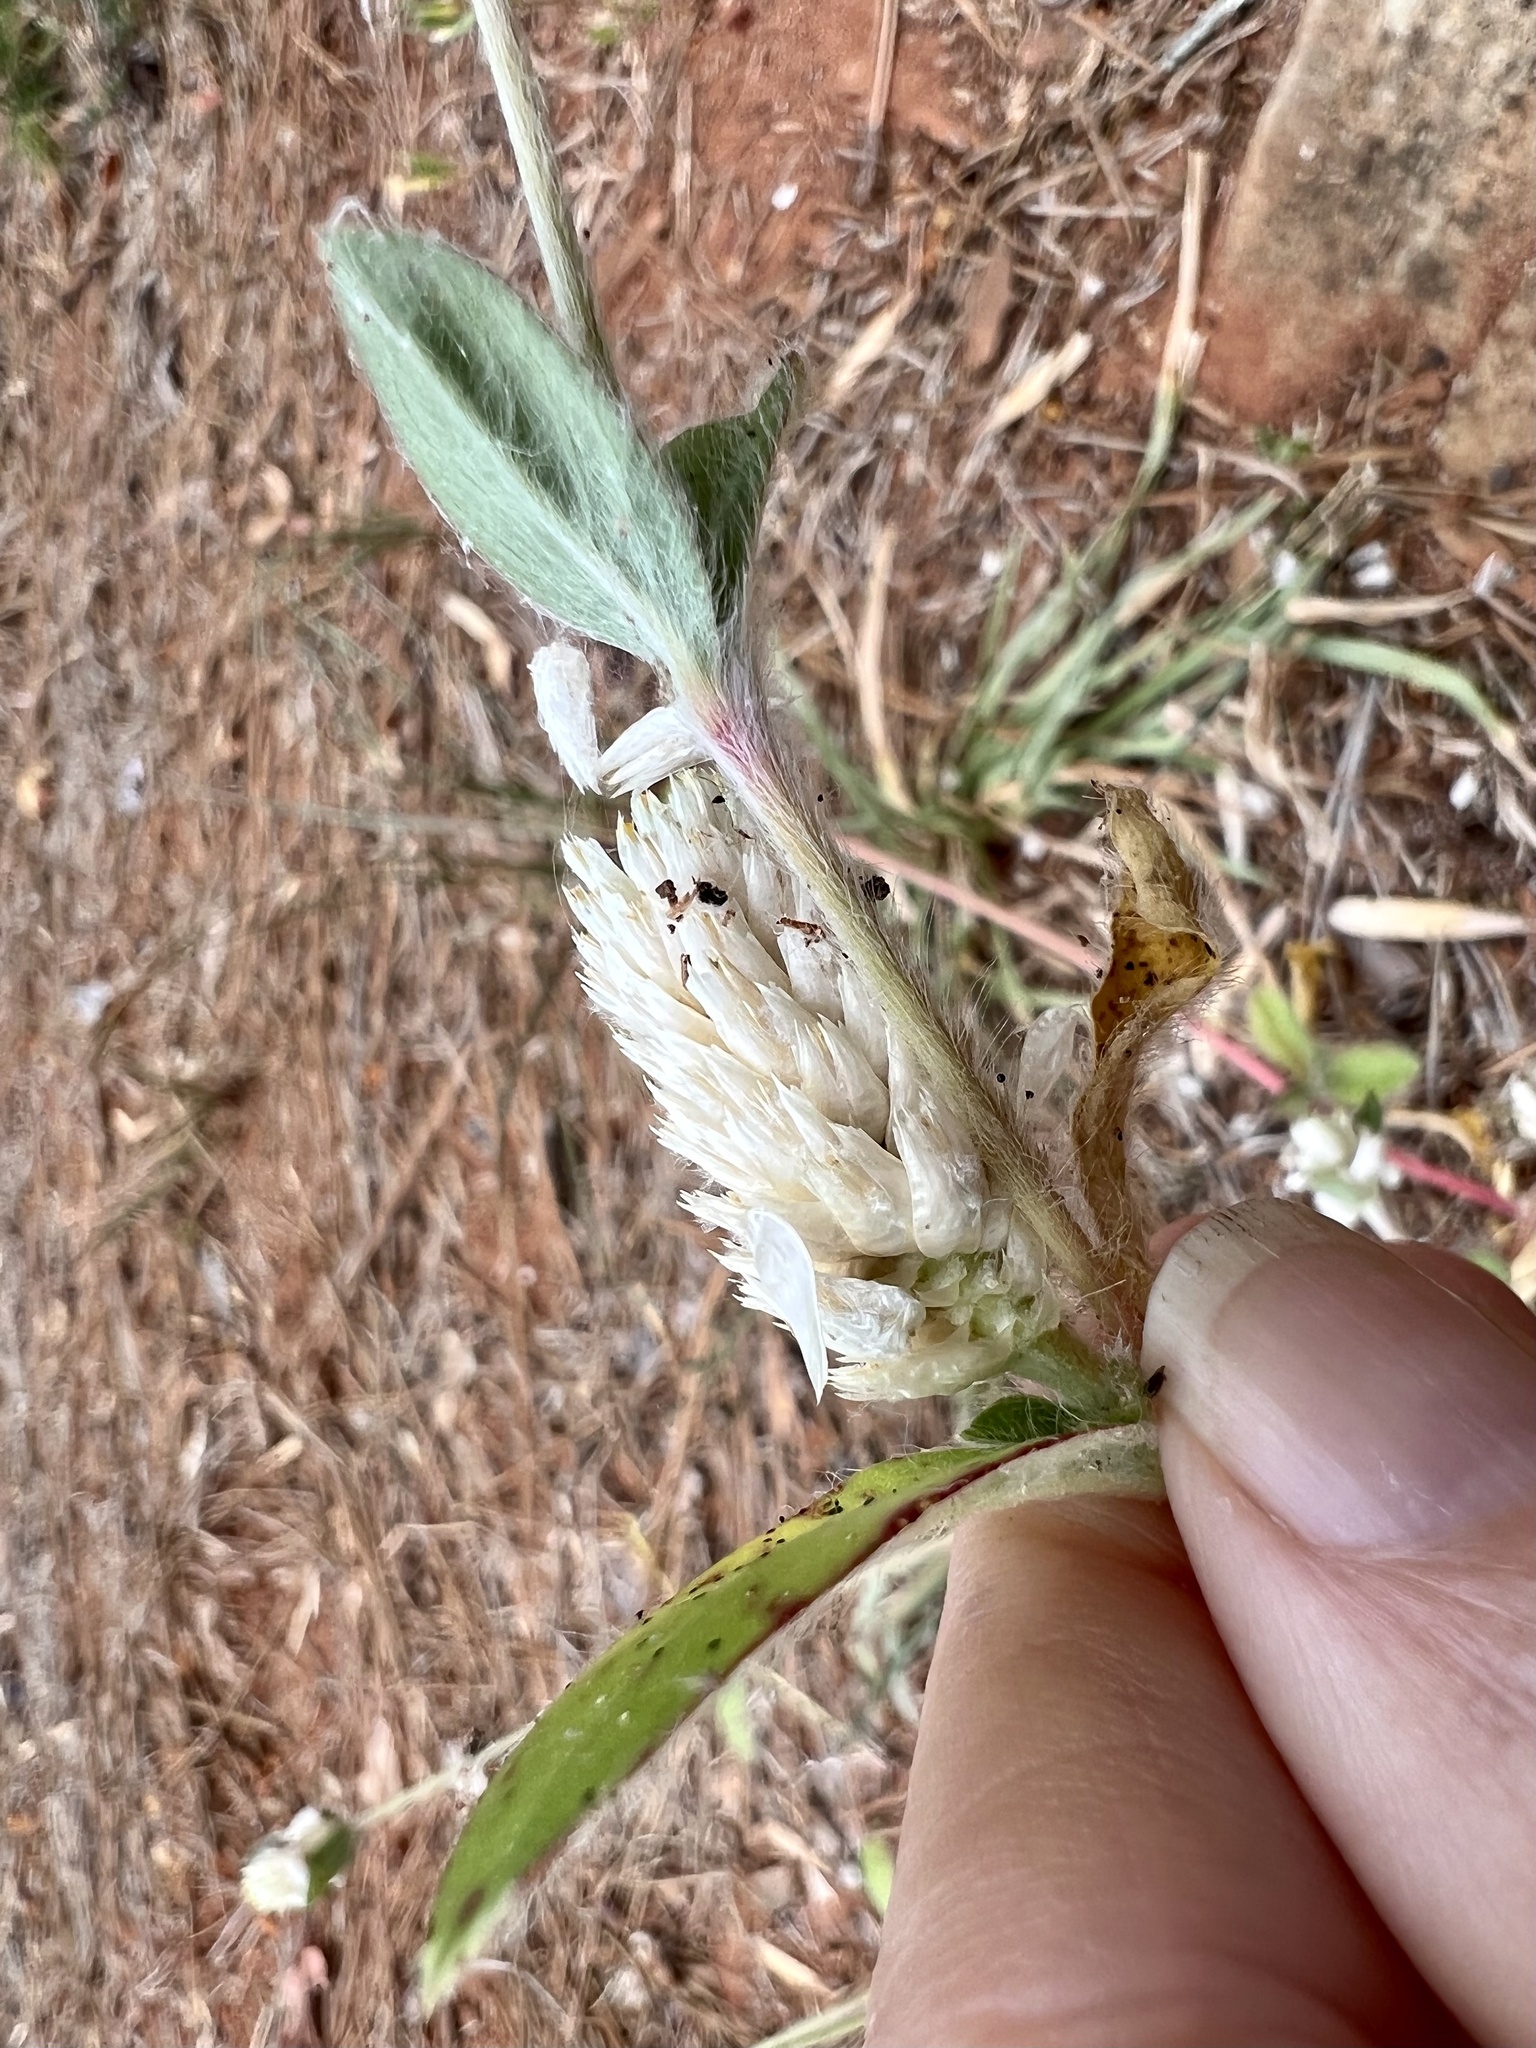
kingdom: Plantae
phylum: Tracheophyta
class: Magnoliopsida
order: Caryophyllales
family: Amaranthaceae
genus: Gomphrena
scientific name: Gomphrena serrata
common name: Arrasa con todo
